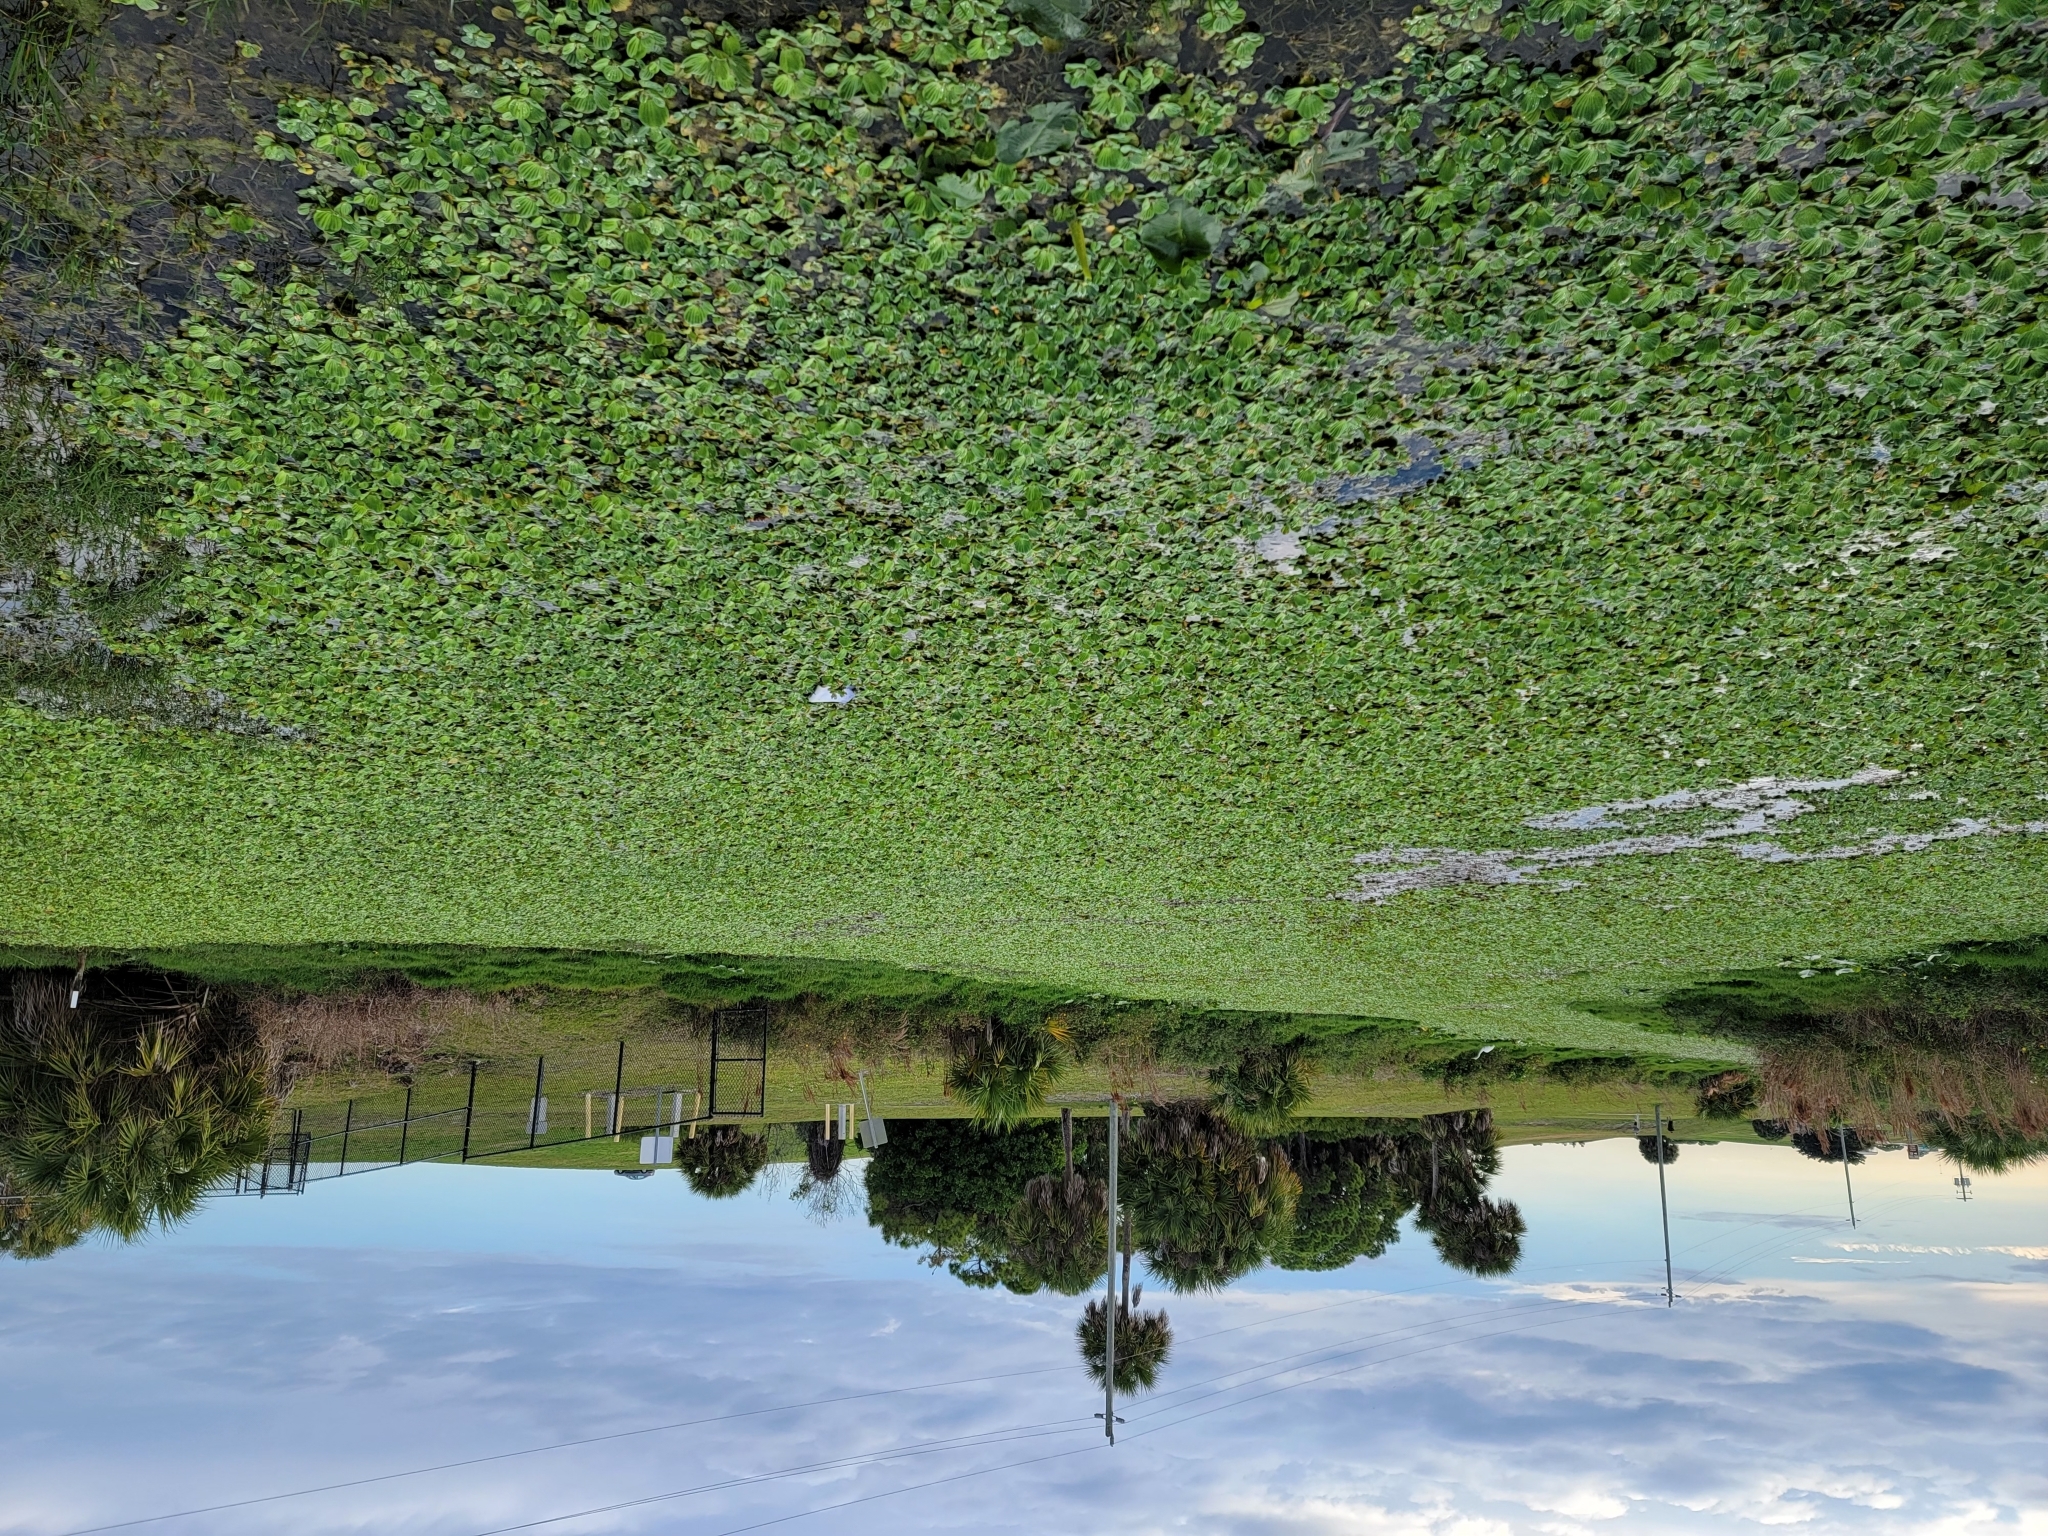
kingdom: Plantae
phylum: Tracheophyta
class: Liliopsida
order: Alismatales
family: Araceae
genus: Pistia
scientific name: Pistia stratiotes
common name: Water lettuce
